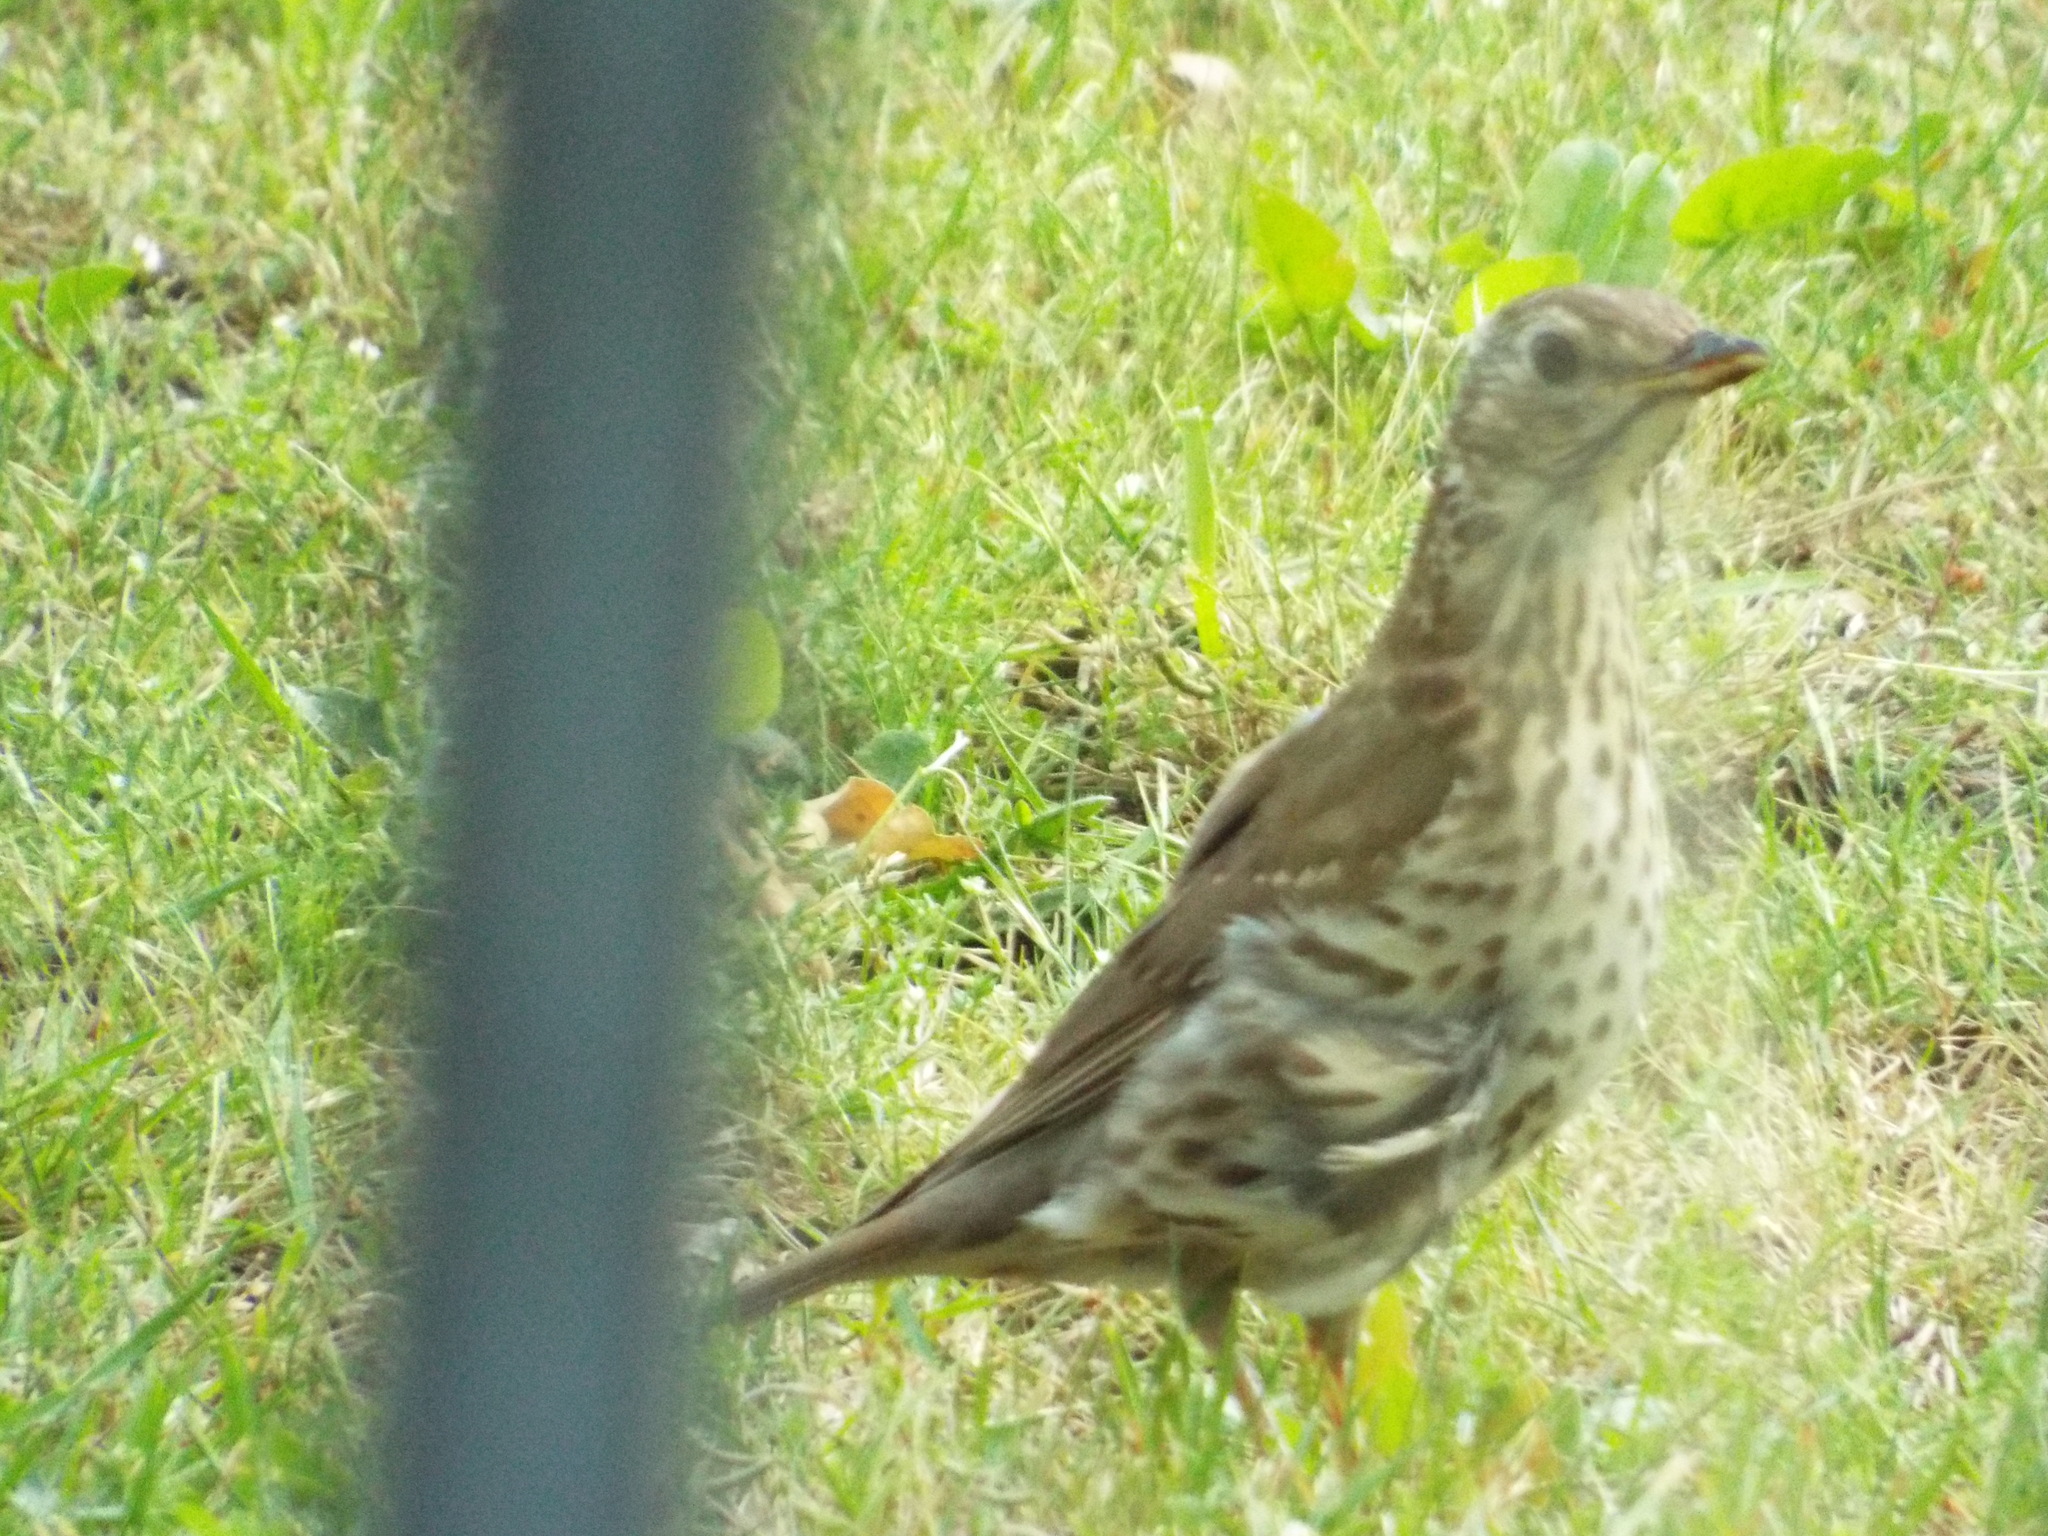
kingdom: Animalia
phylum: Chordata
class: Aves
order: Passeriformes
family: Turdidae
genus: Turdus
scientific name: Turdus philomelos
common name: Song thrush
